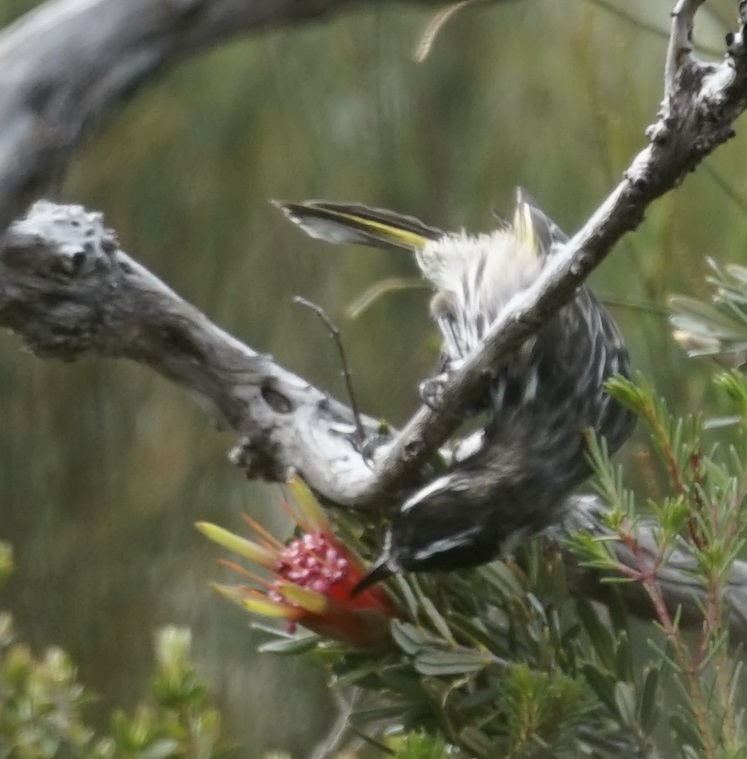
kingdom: Animalia
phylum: Chordata
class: Aves
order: Passeriformes
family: Meliphagidae
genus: Phylidonyris
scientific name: Phylidonyris novaehollandiae
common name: New holland honeyeater
